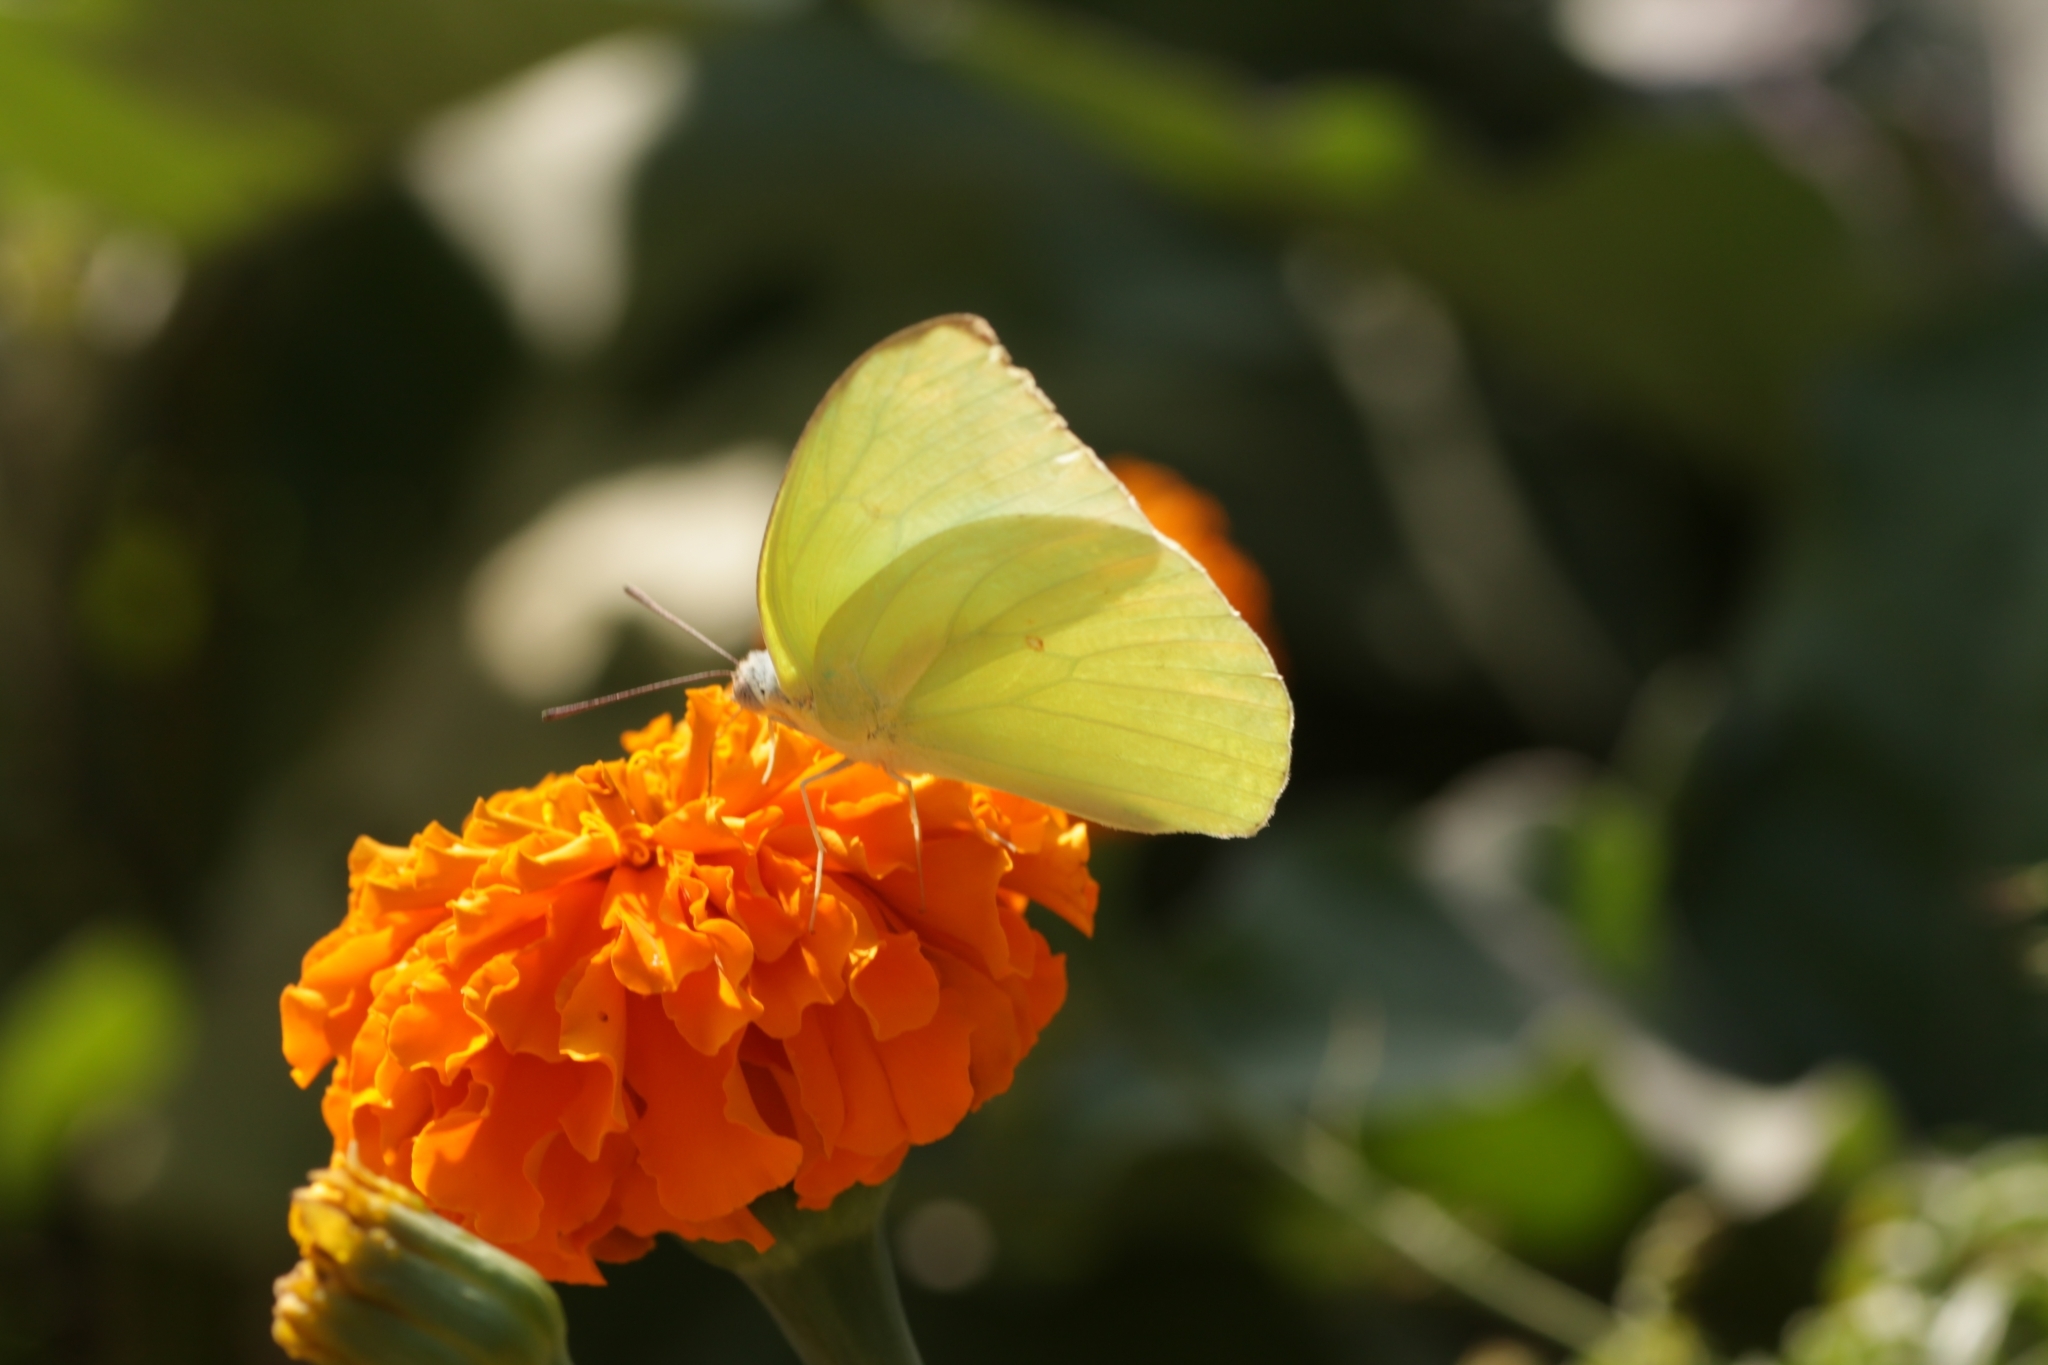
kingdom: Animalia
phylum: Arthropoda
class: Insecta
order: Lepidoptera
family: Pieridae
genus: Catopsilia
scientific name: Catopsilia pomona
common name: Common emigrant
